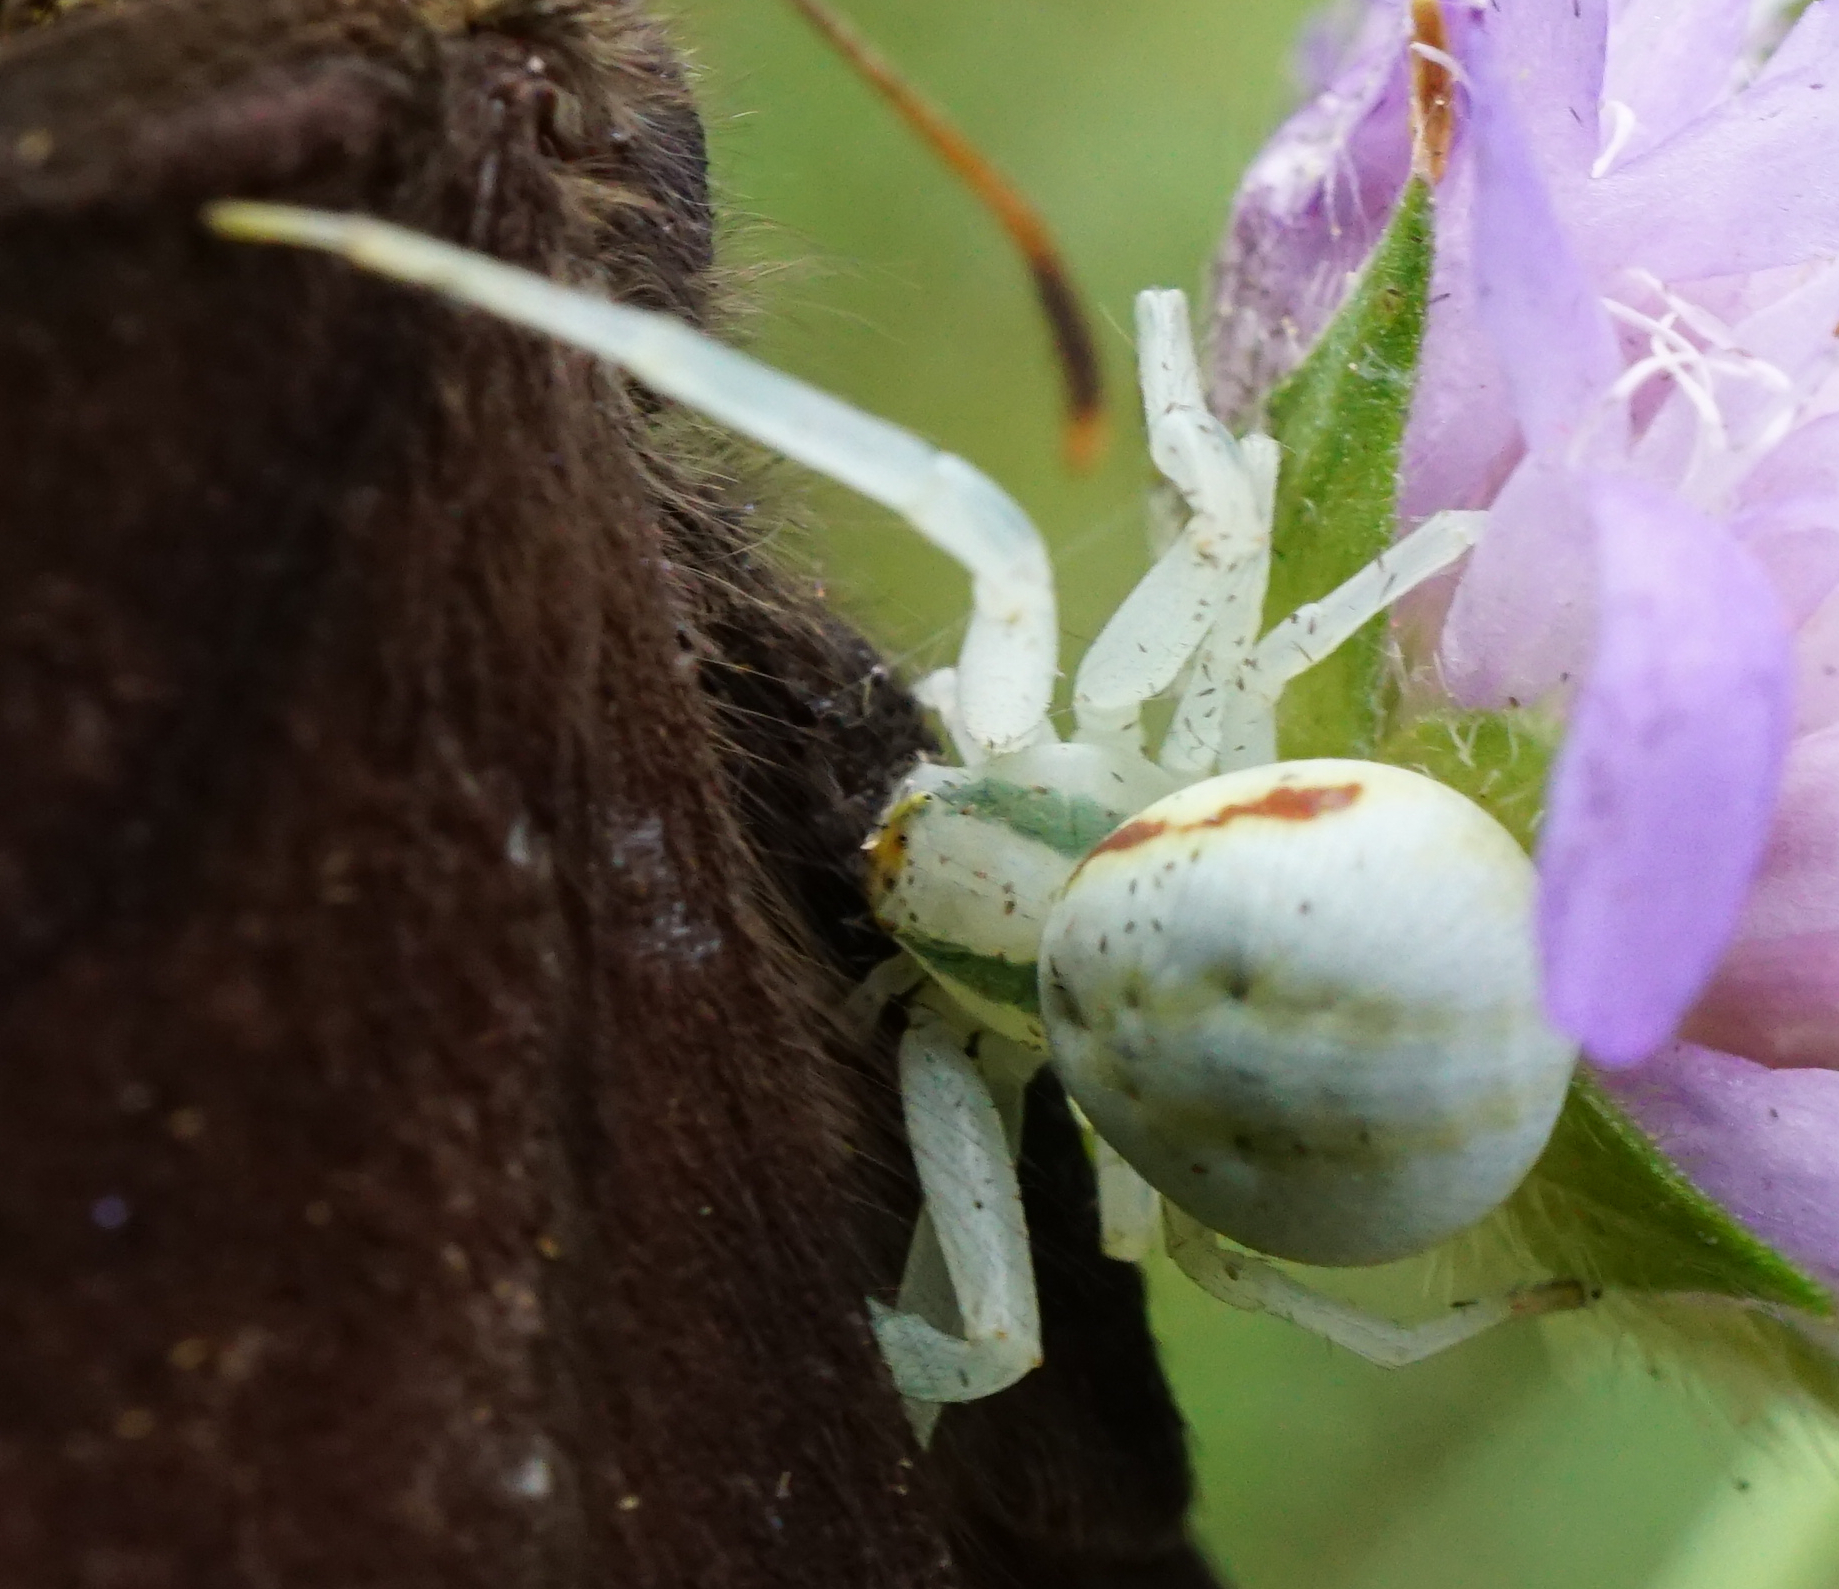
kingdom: Animalia
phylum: Arthropoda
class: Arachnida
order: Araneae
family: Thomisidae
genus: Misumena
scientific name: Misumena vatia
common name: Goldenrod crab spider
